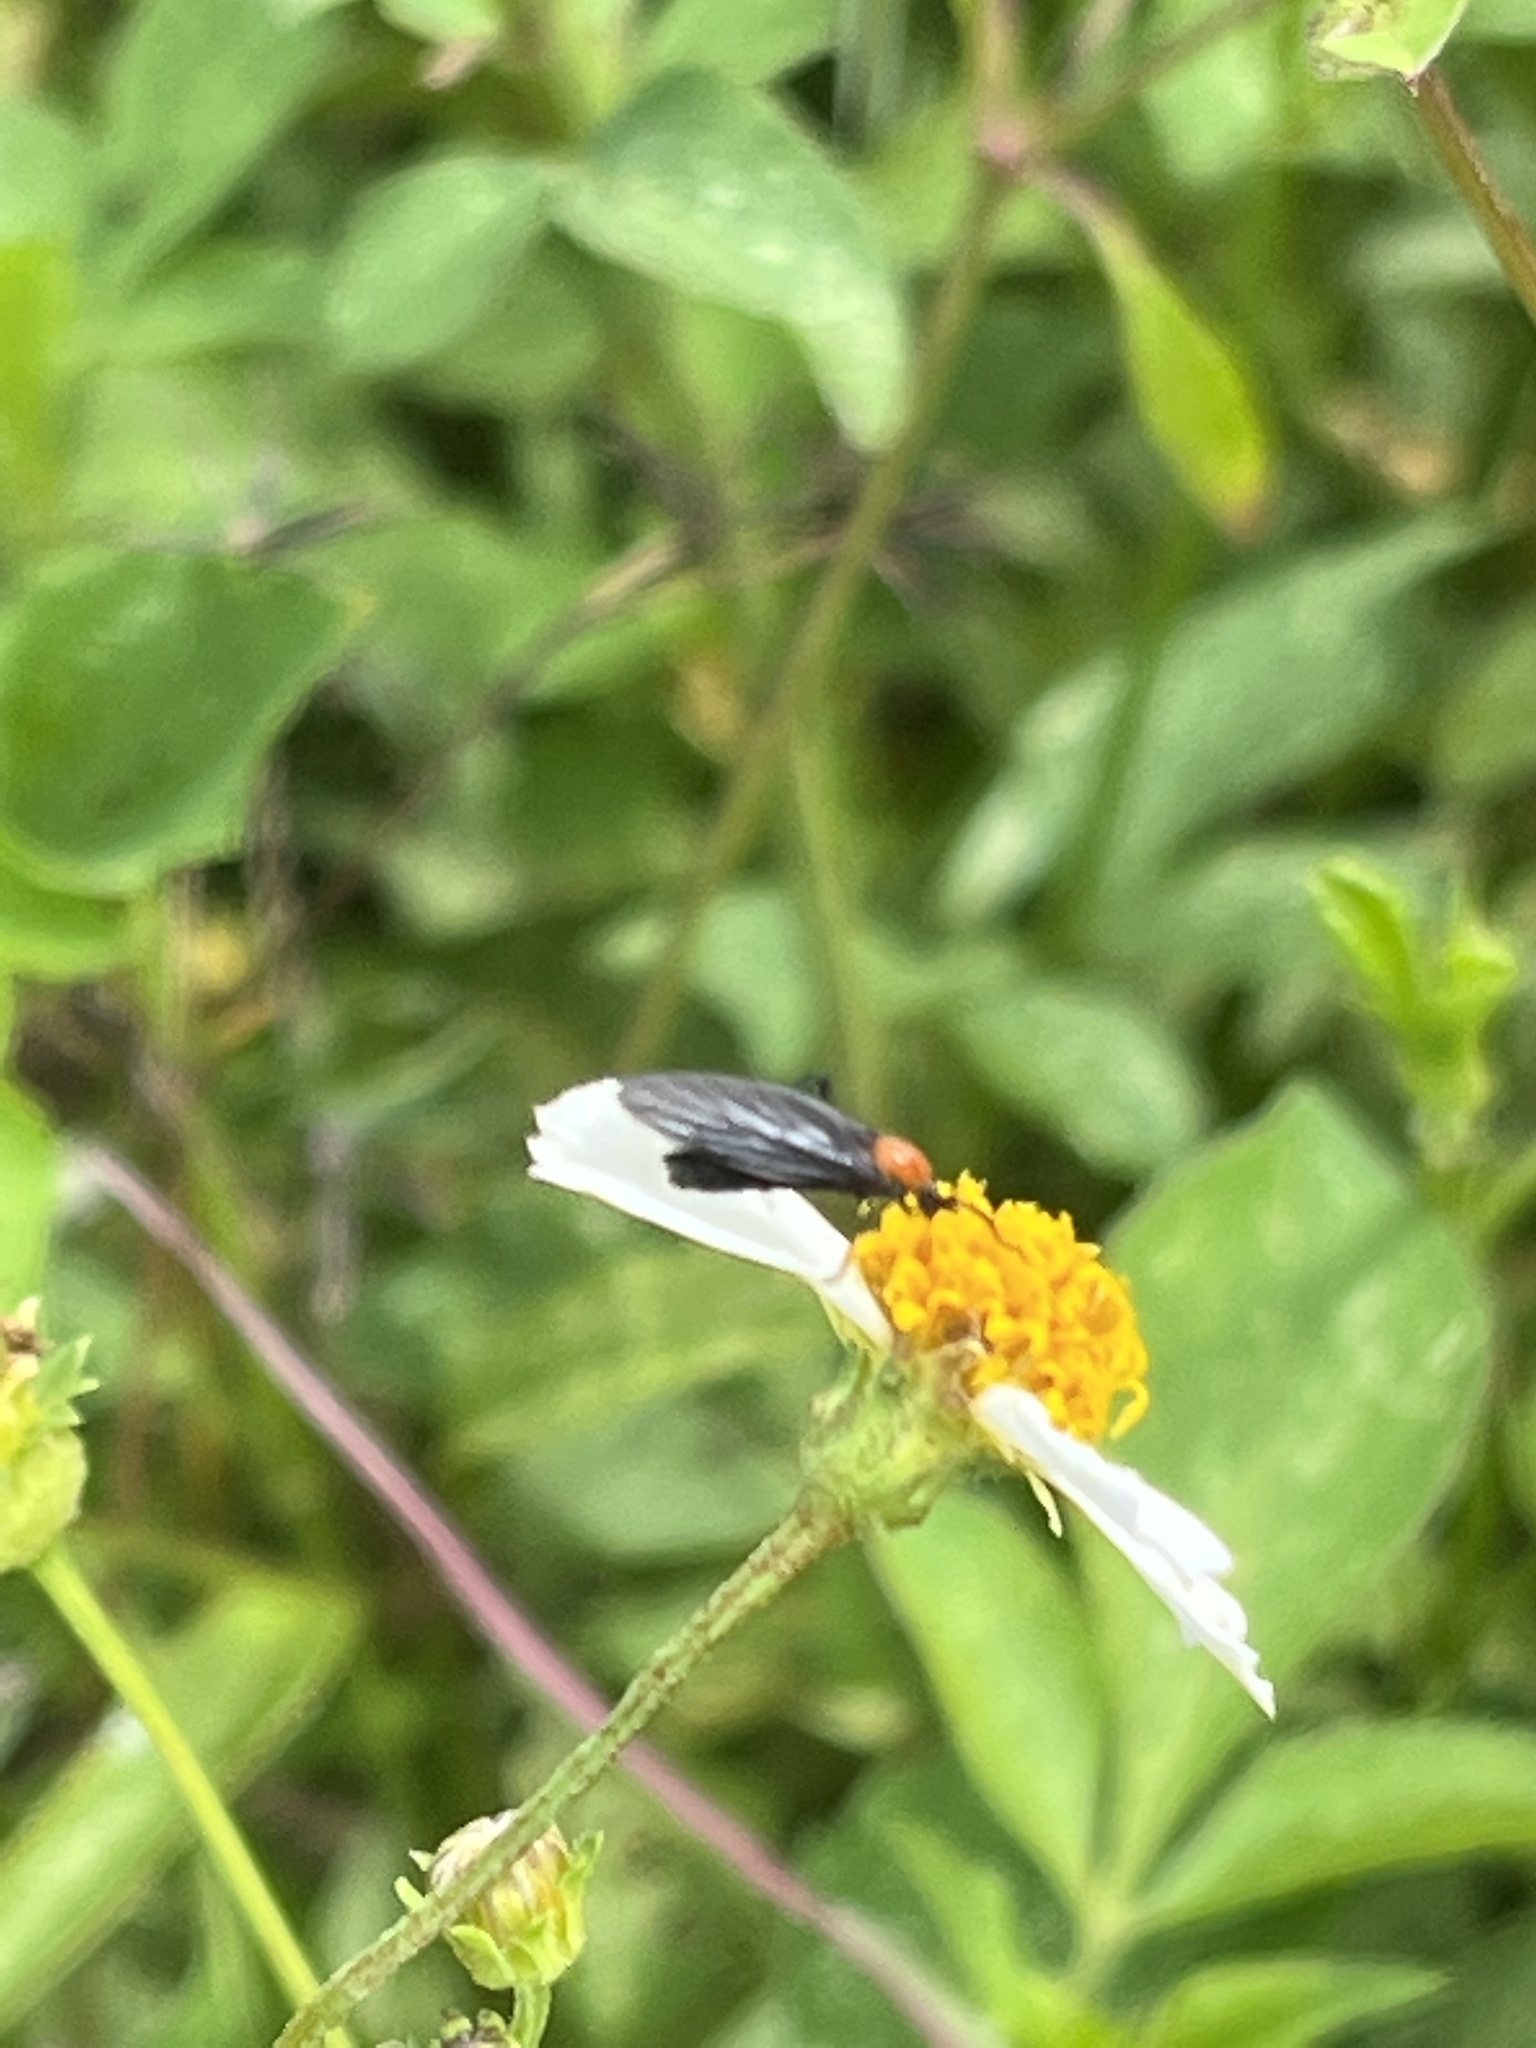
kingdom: Animalia
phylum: Arthropoda
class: Insecta
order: Diptera
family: Bibionidae
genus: Plecia
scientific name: Plecia nearctica
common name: March fly
